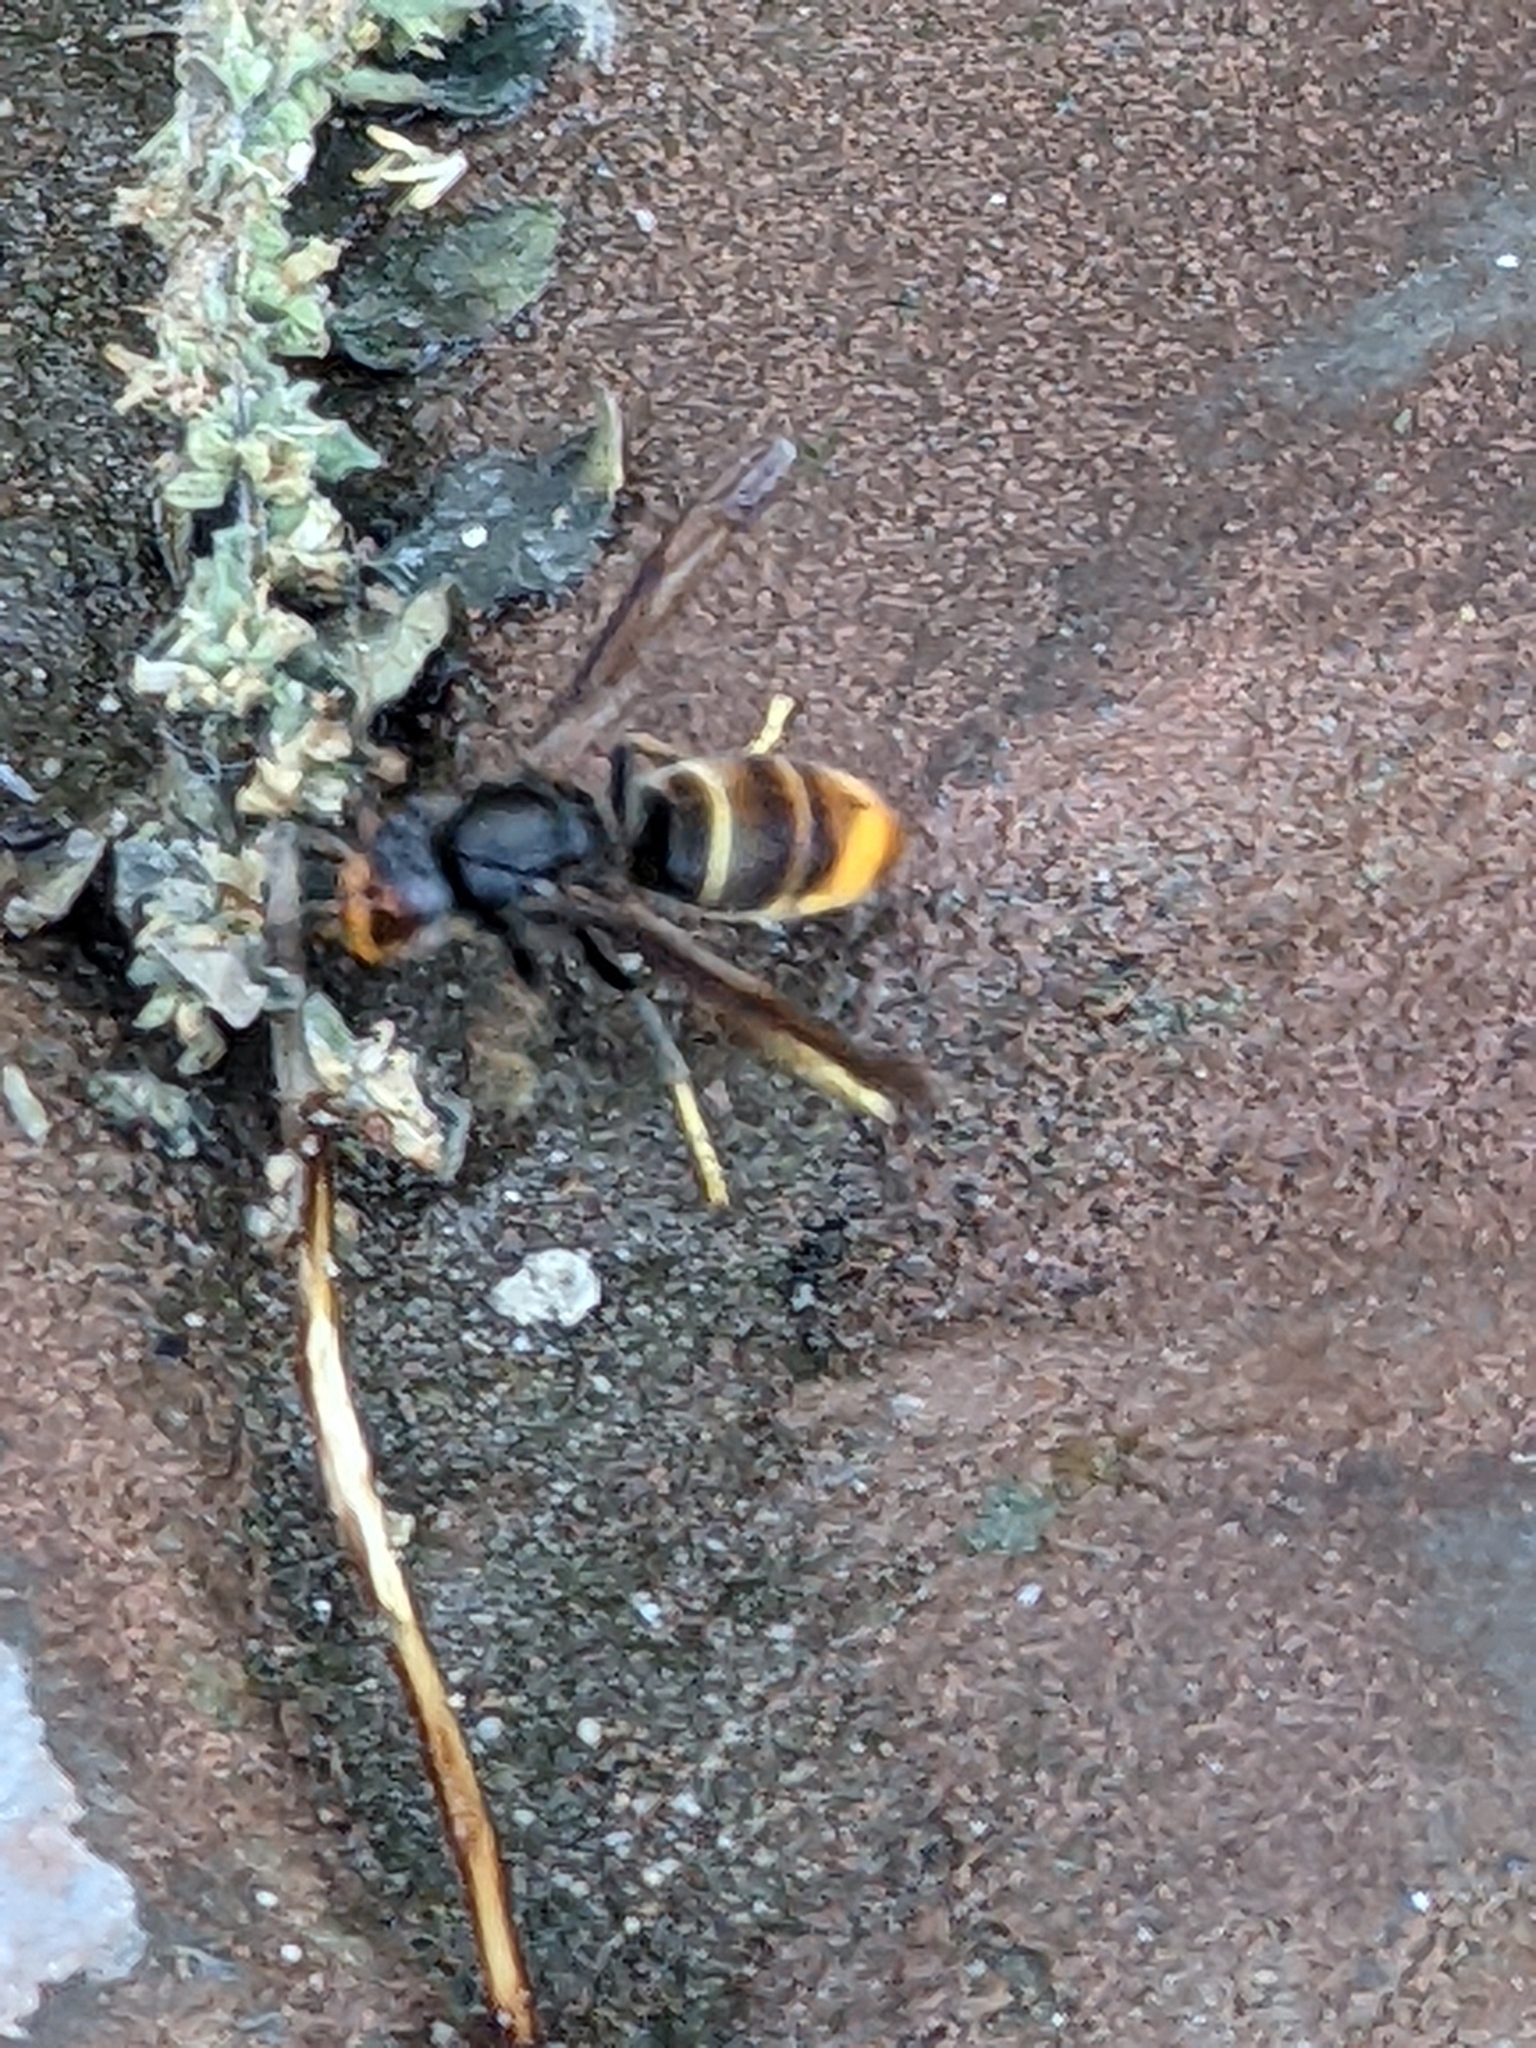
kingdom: Animalia
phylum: Arthropoda
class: Insecta
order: Hymenoptera
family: Vespidae
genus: Vespa
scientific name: Vespa velutina
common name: Asian hornet
